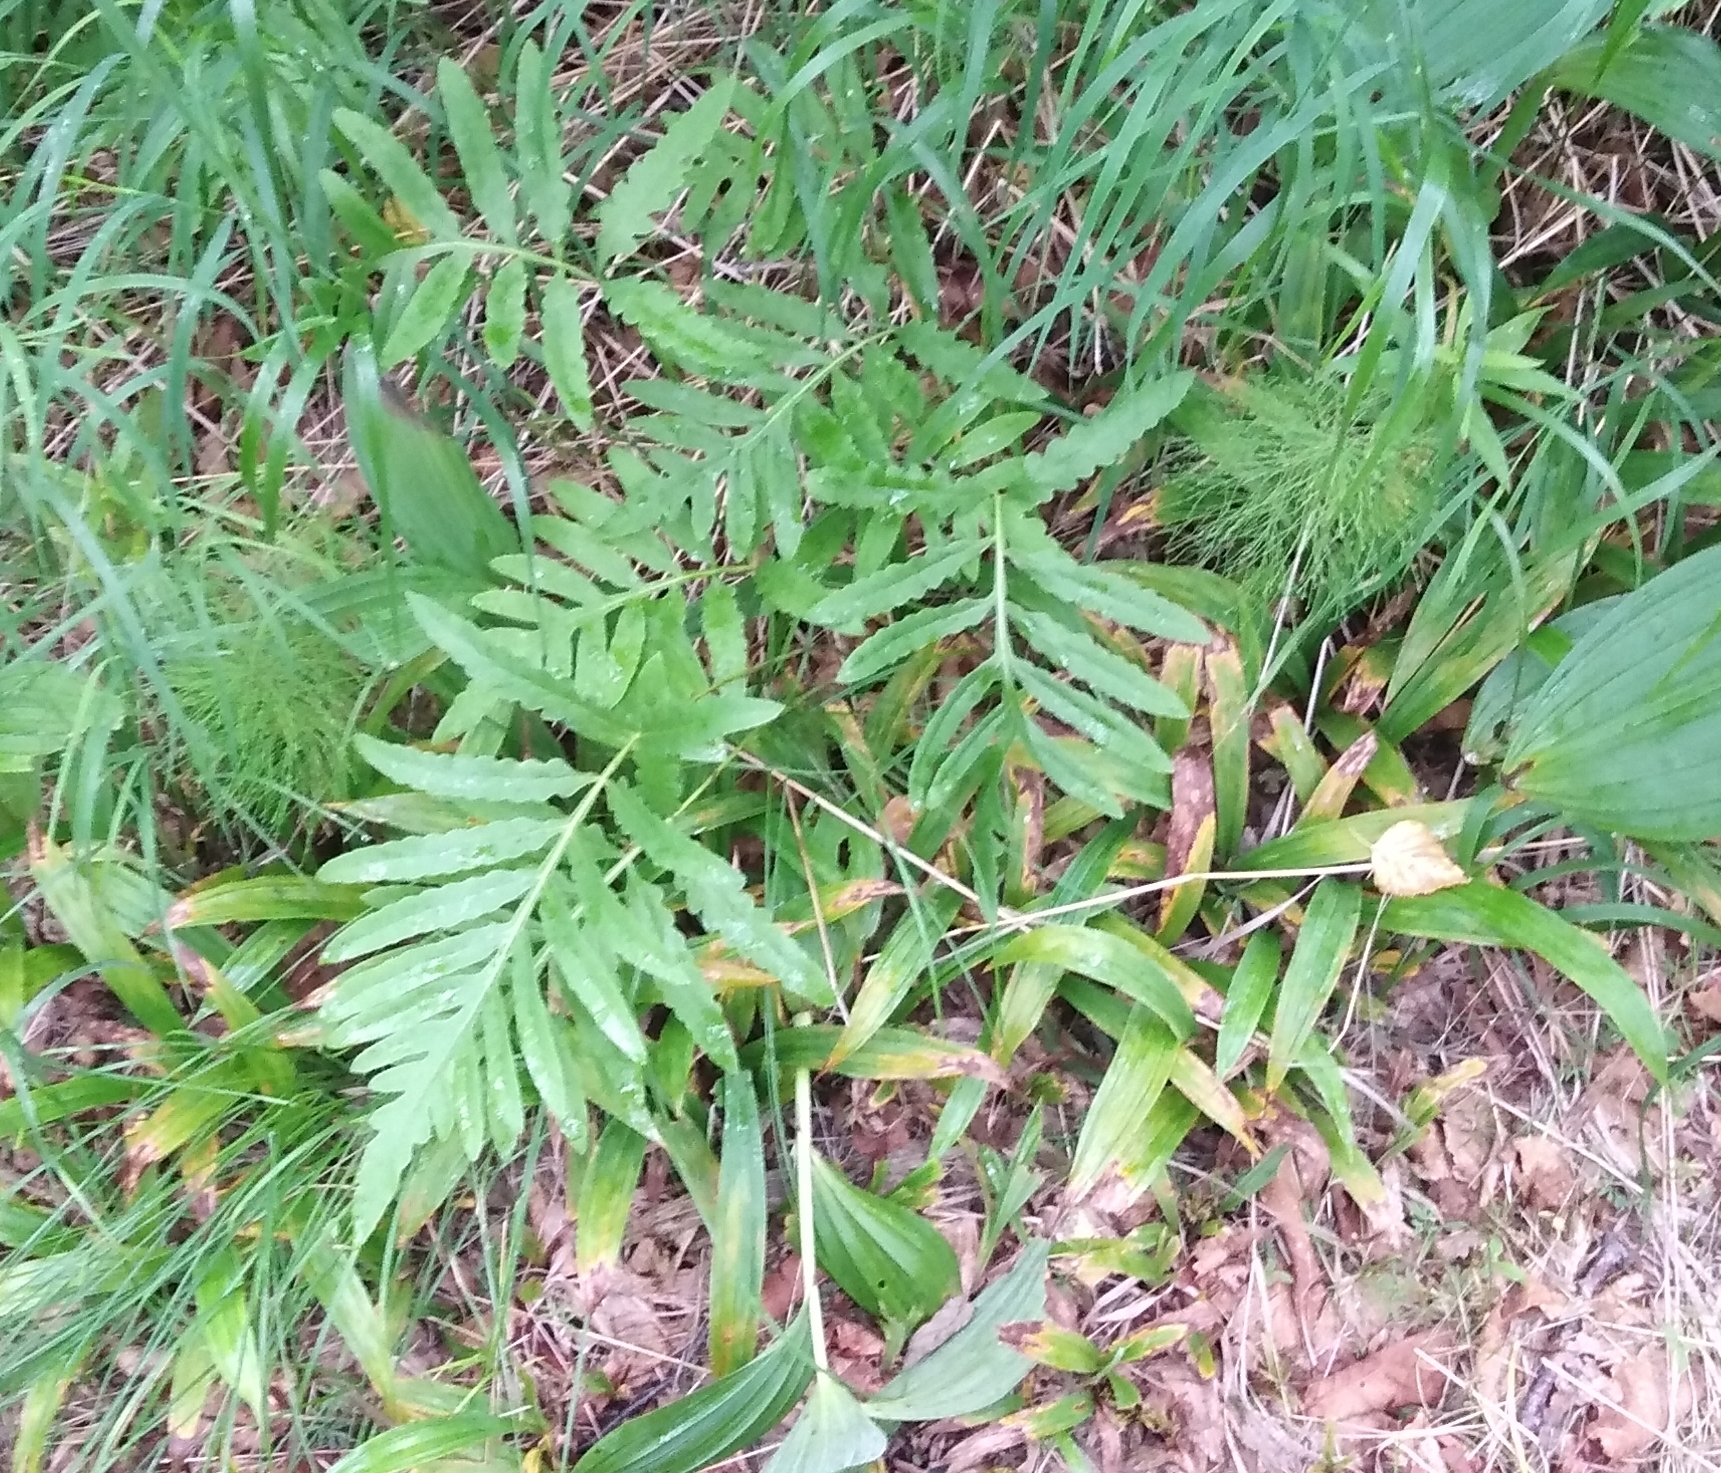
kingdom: Plantae
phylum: Tracheophyta
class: Polypodiopsida
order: Polypodiales
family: Onocleaceae
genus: Onoclea
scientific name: Onoclea sensibilis
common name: Sensitive fern
